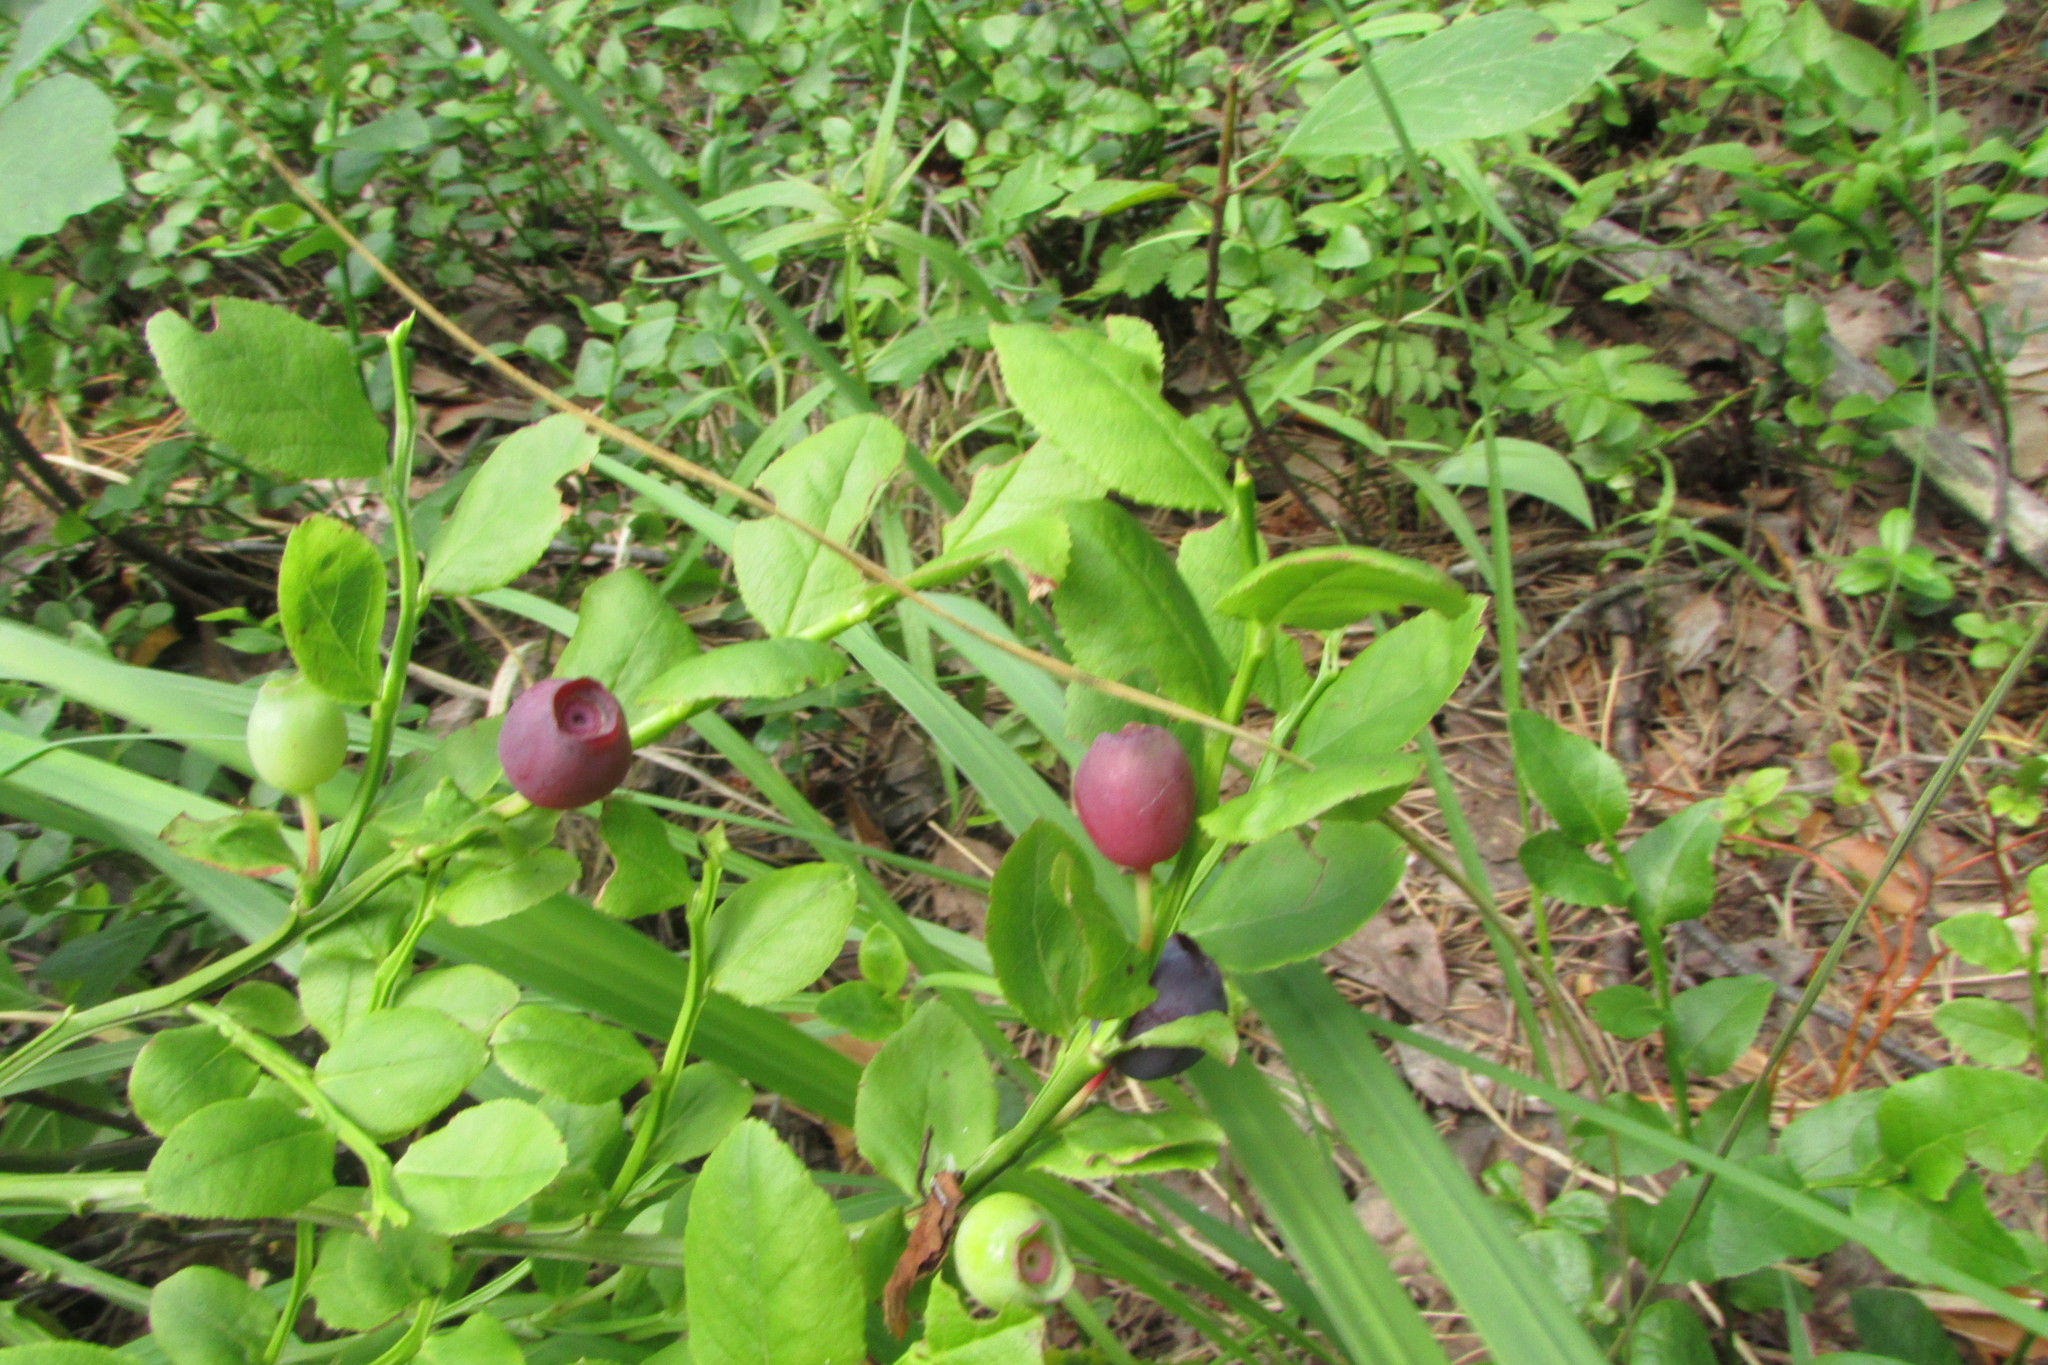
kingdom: Plantae
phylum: Tracheophyta
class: Magnoliopsida
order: Ericales
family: Ericaceae
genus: Vaccinium
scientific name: Vaccinium myrtillus
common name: Bilberry
